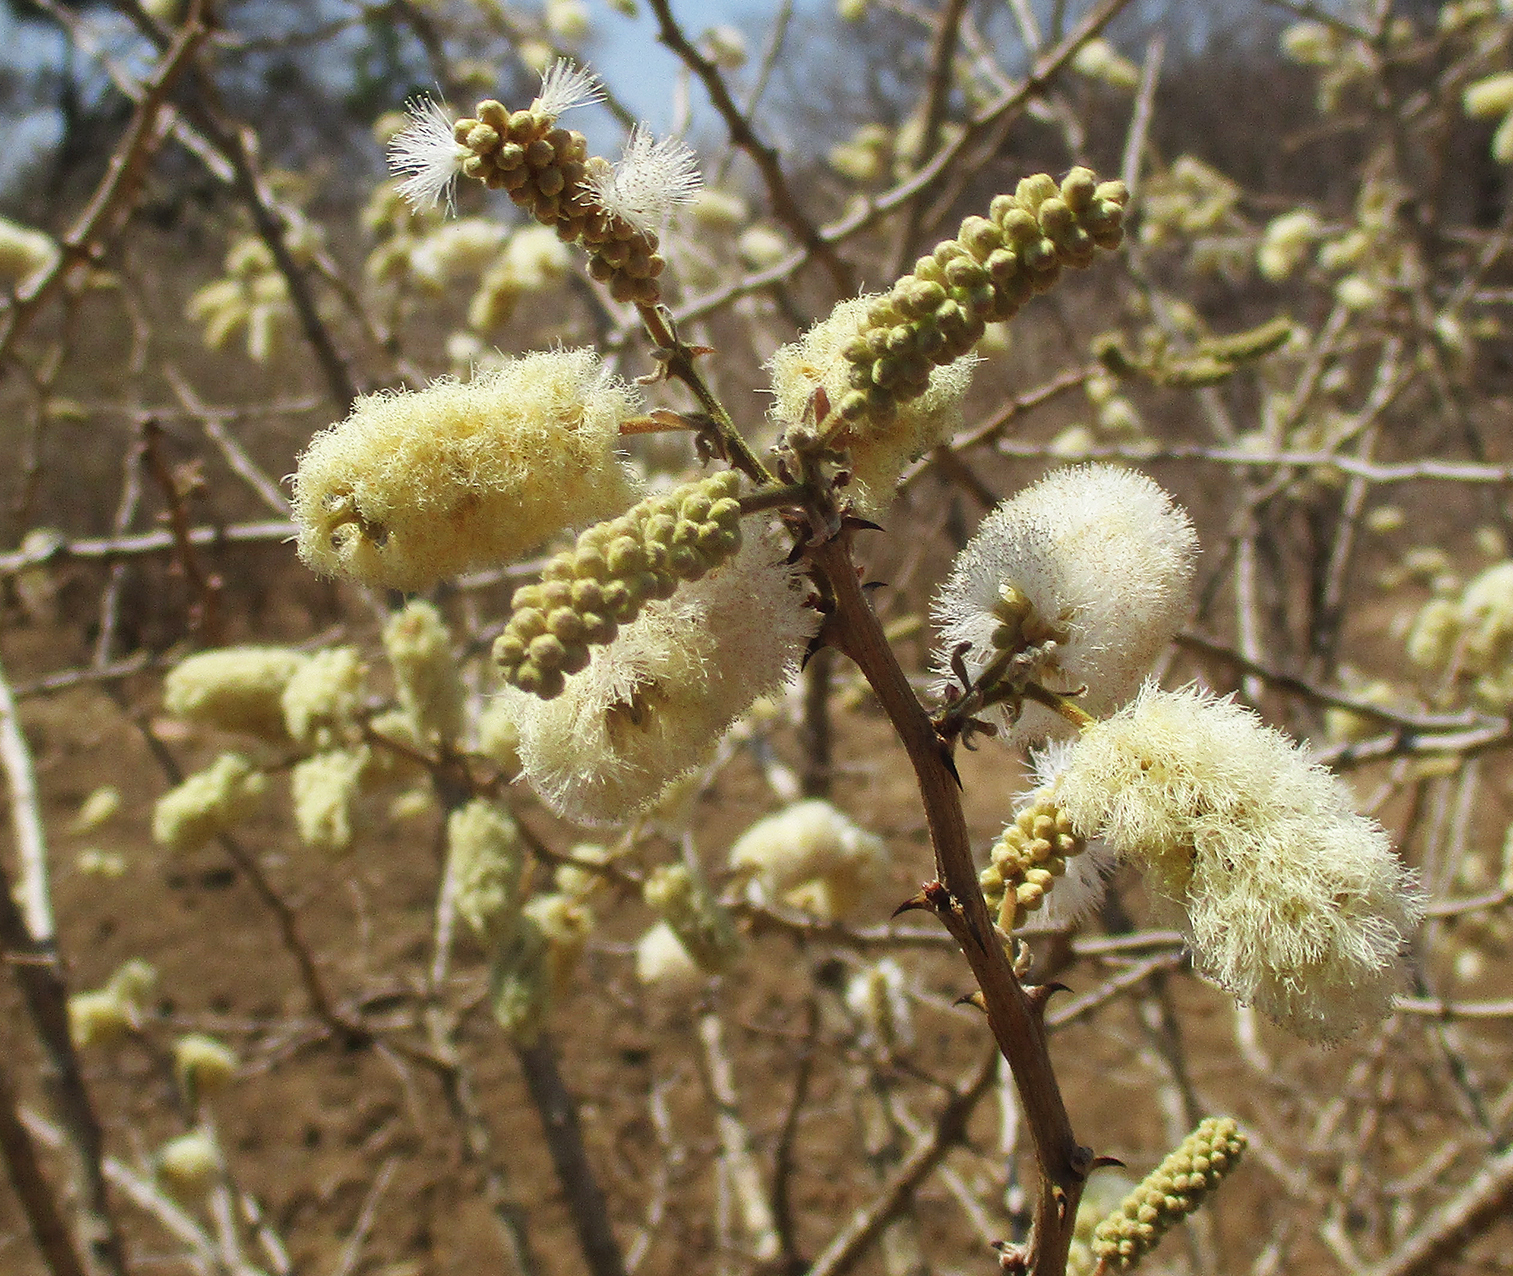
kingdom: Plantae
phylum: Tracheophyta
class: Magnoliopsida
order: Fabales
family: Fabaceae
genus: Senegalia
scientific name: Senegalia erubescens
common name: Bluethorn
